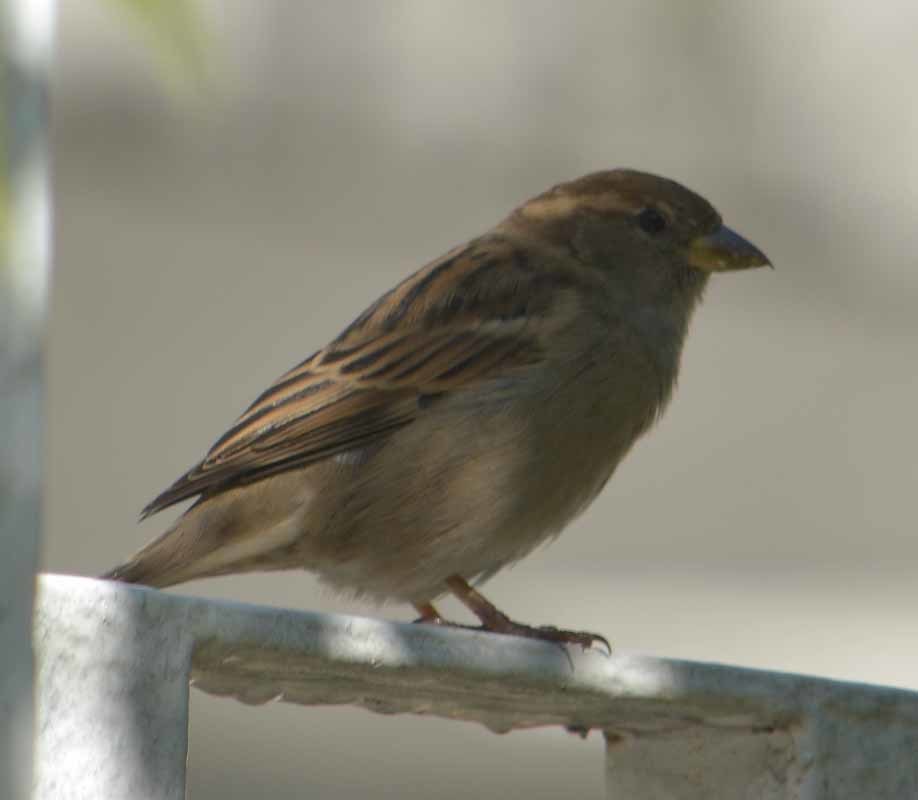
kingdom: Animalia
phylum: Chordata
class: Aves
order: Passeriformes
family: Passeridae
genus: Passer
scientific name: Passer domesticus
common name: House sparrow
